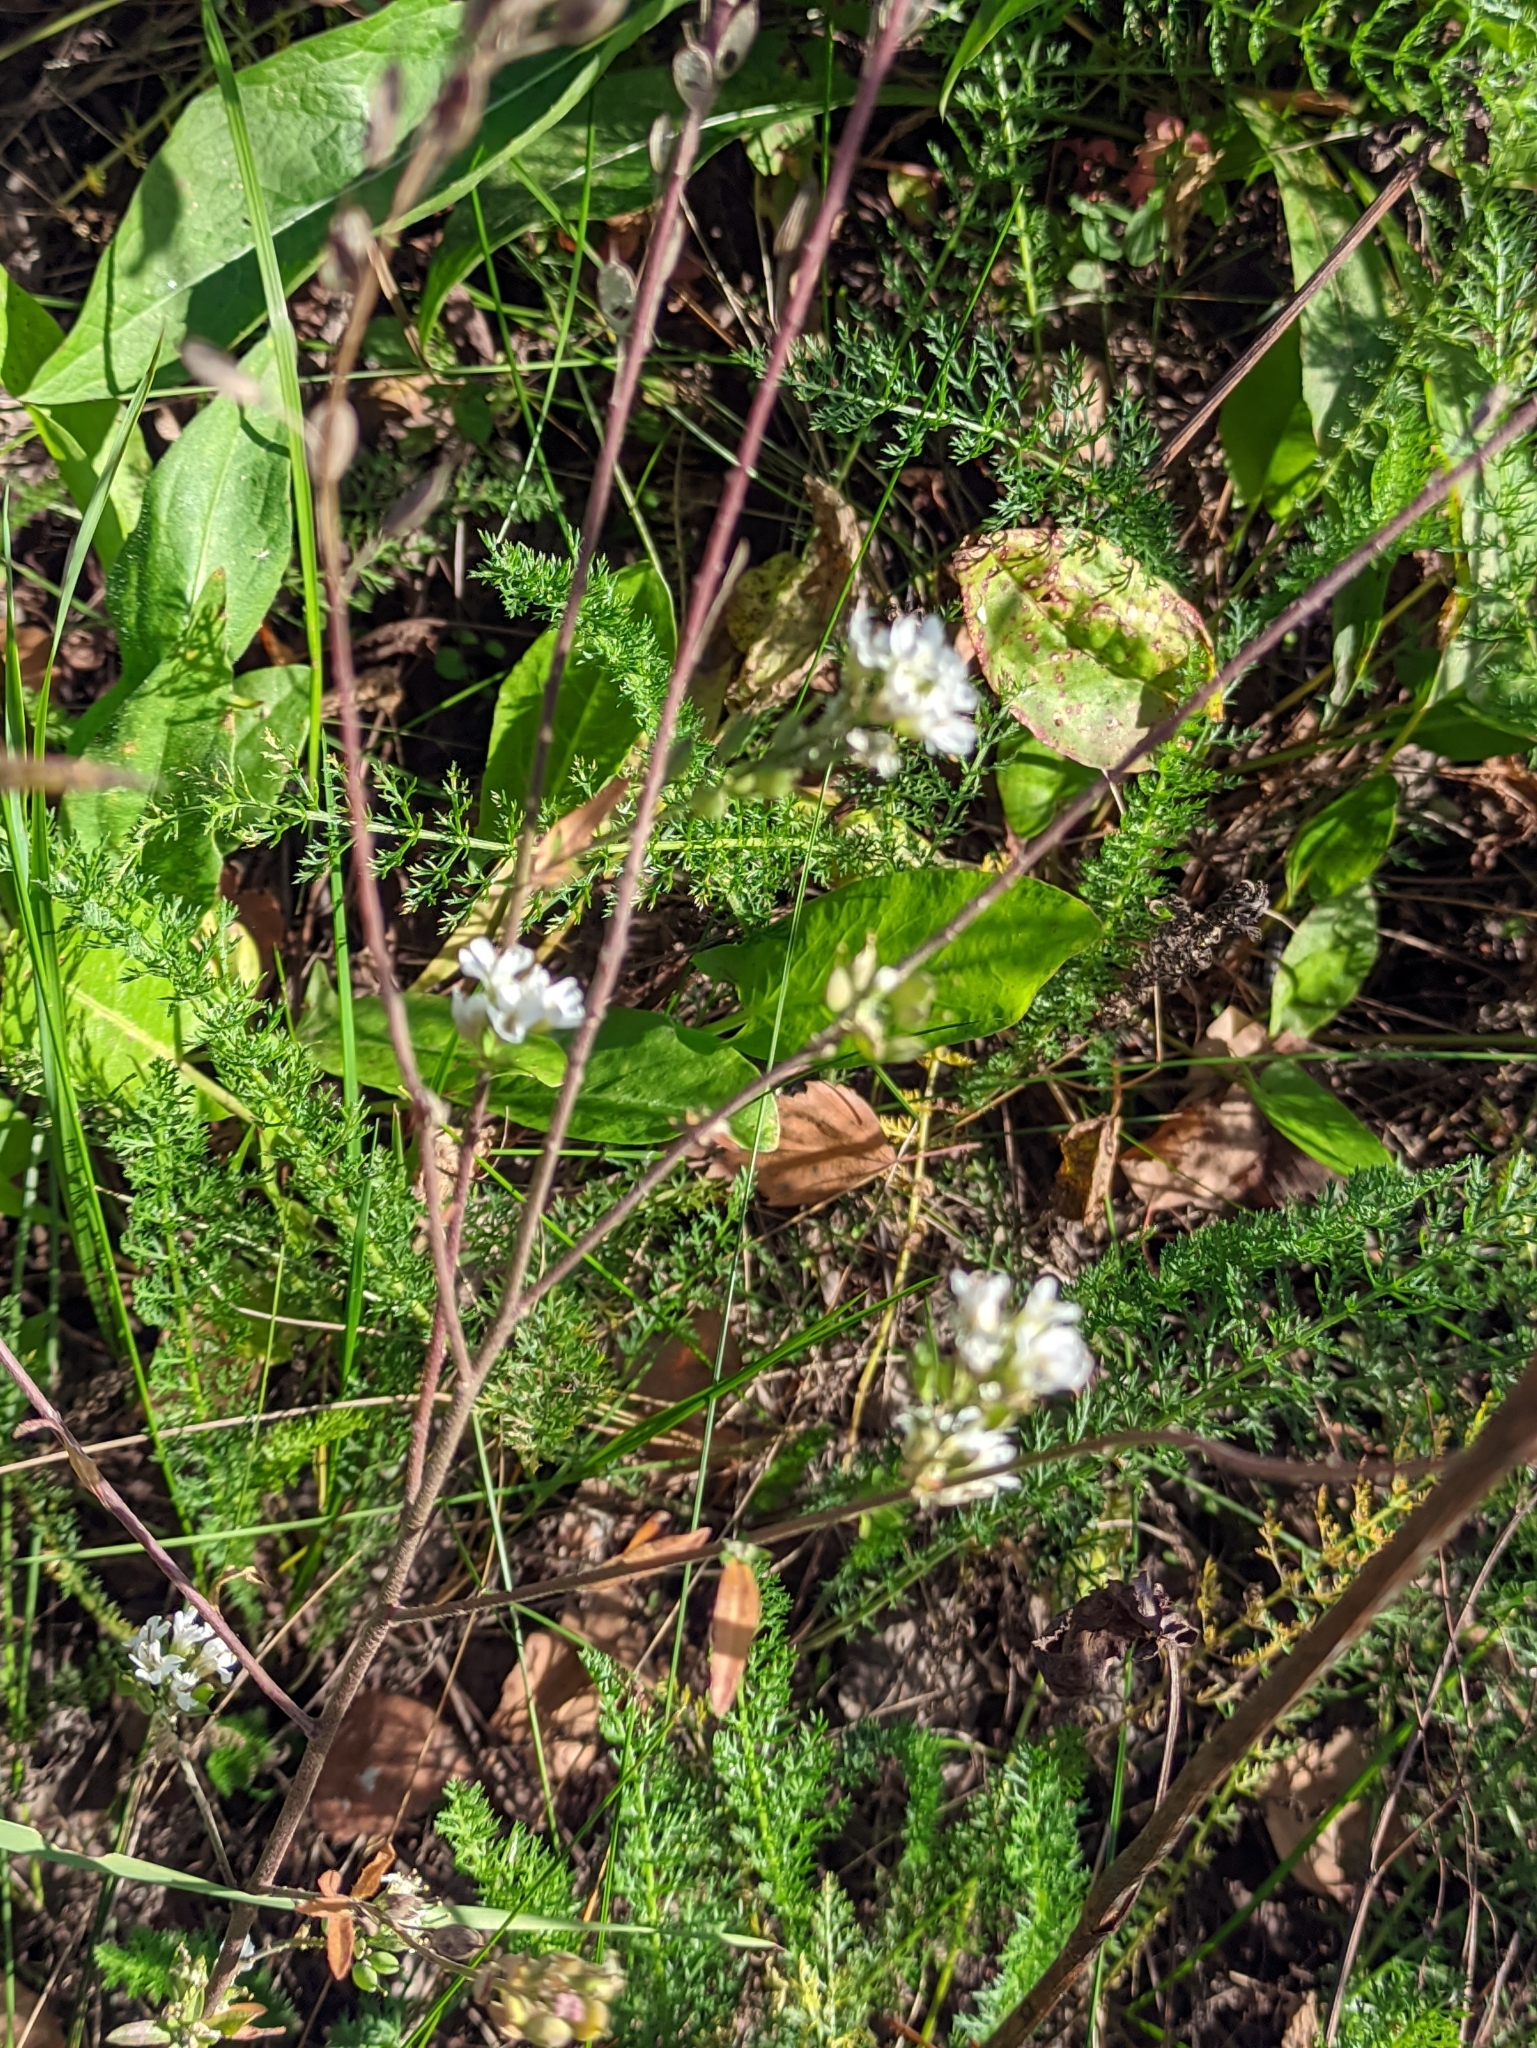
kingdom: Plantae
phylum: Tracheophyta
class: Magnoliopsida
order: Brassicales
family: Brassicaceae
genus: Berteroa
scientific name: Berteroa incana
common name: Hoary alison
